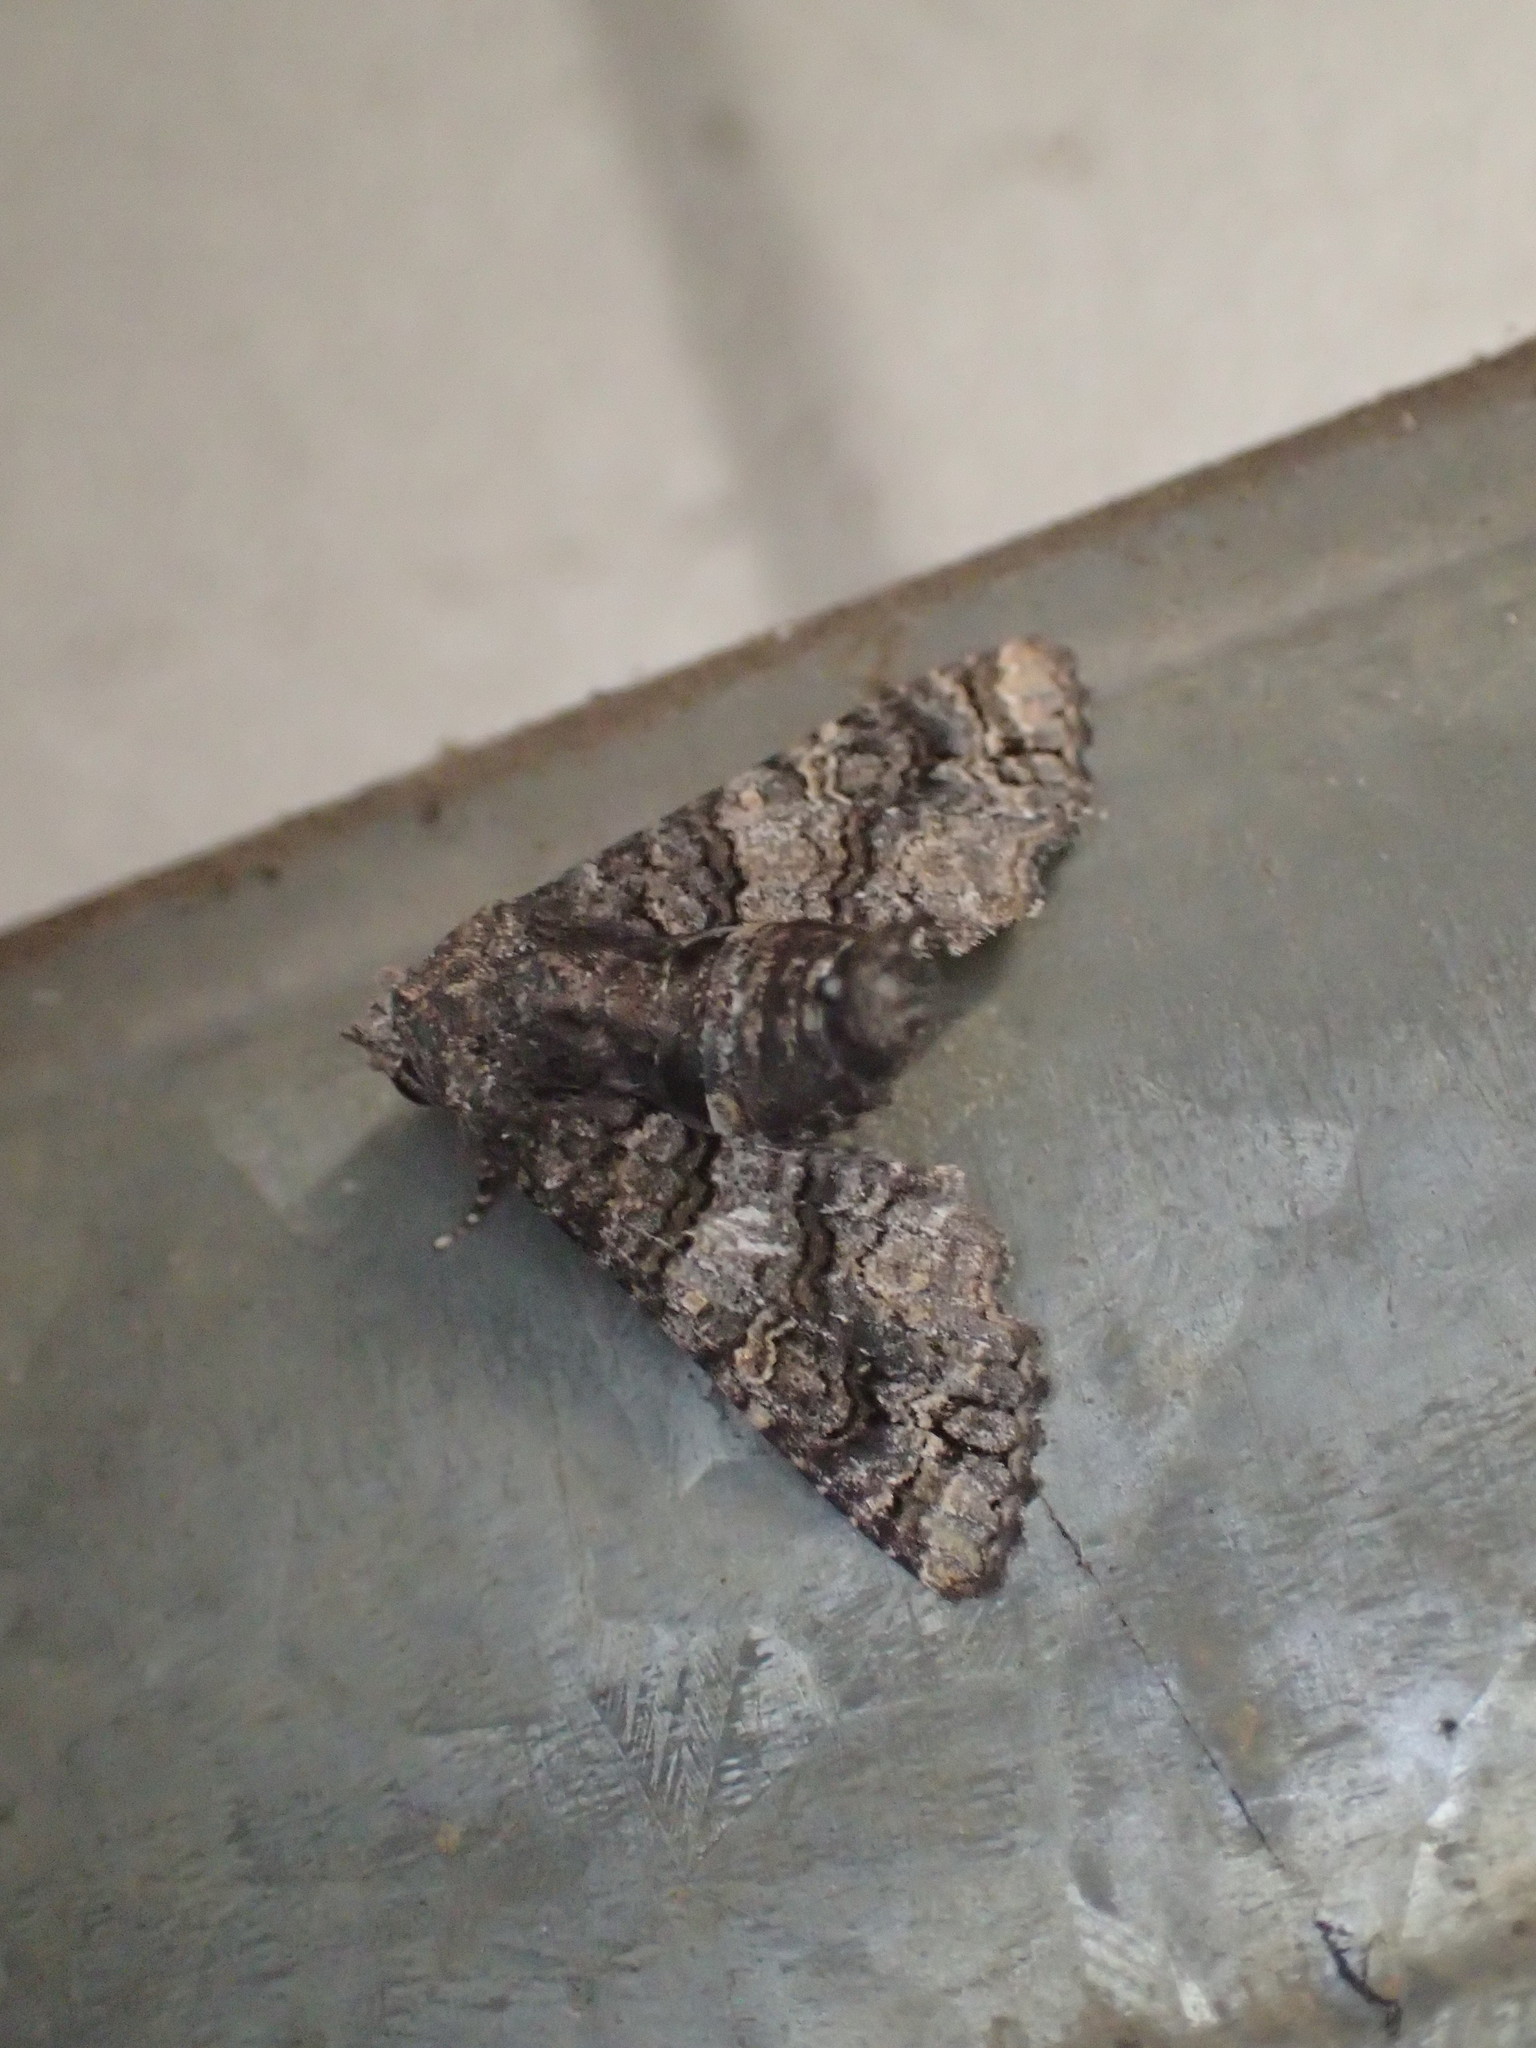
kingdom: Animalia
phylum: Arthropoda
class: Insecta
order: Lepidoptera
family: Euteliidae
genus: Pataeta
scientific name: Pataeta carbo
